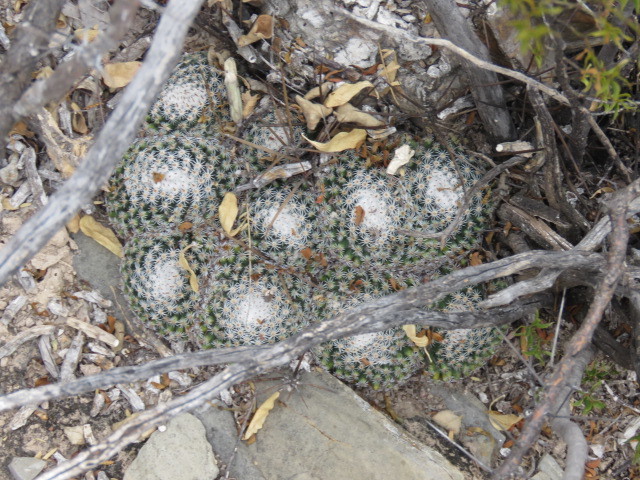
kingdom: Plantae
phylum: Tracheophyta
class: Magnoliopsida
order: Caryophyllales
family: Cactaceae
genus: Mammillaria
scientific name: Mammillaria perbella
